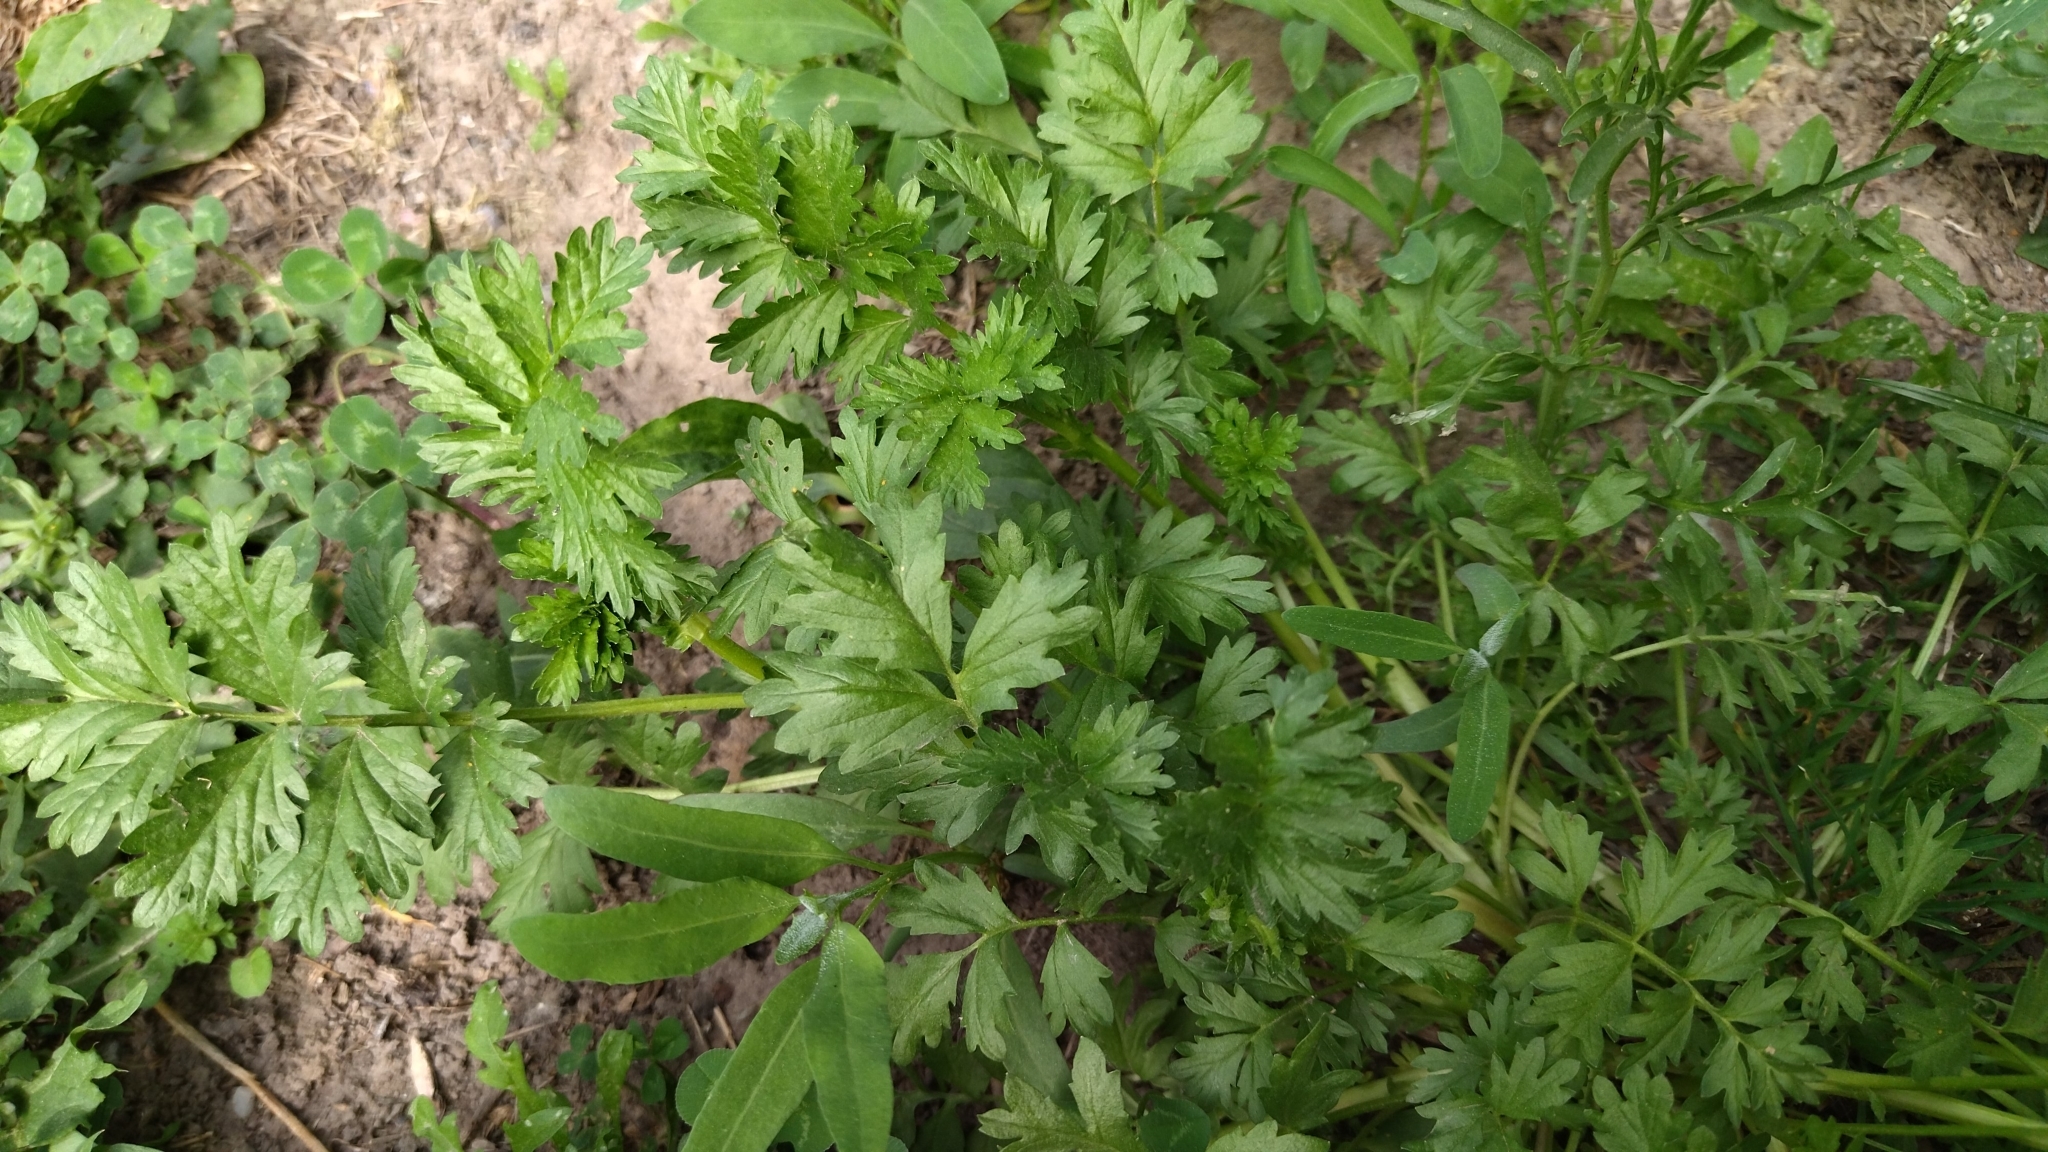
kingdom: Plantae
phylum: Tracheophyta
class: Magnoliopsida
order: Rosales
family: Rosaceae
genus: Potentilla
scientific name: Potentilla supina
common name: Prostrate cinquefoil
